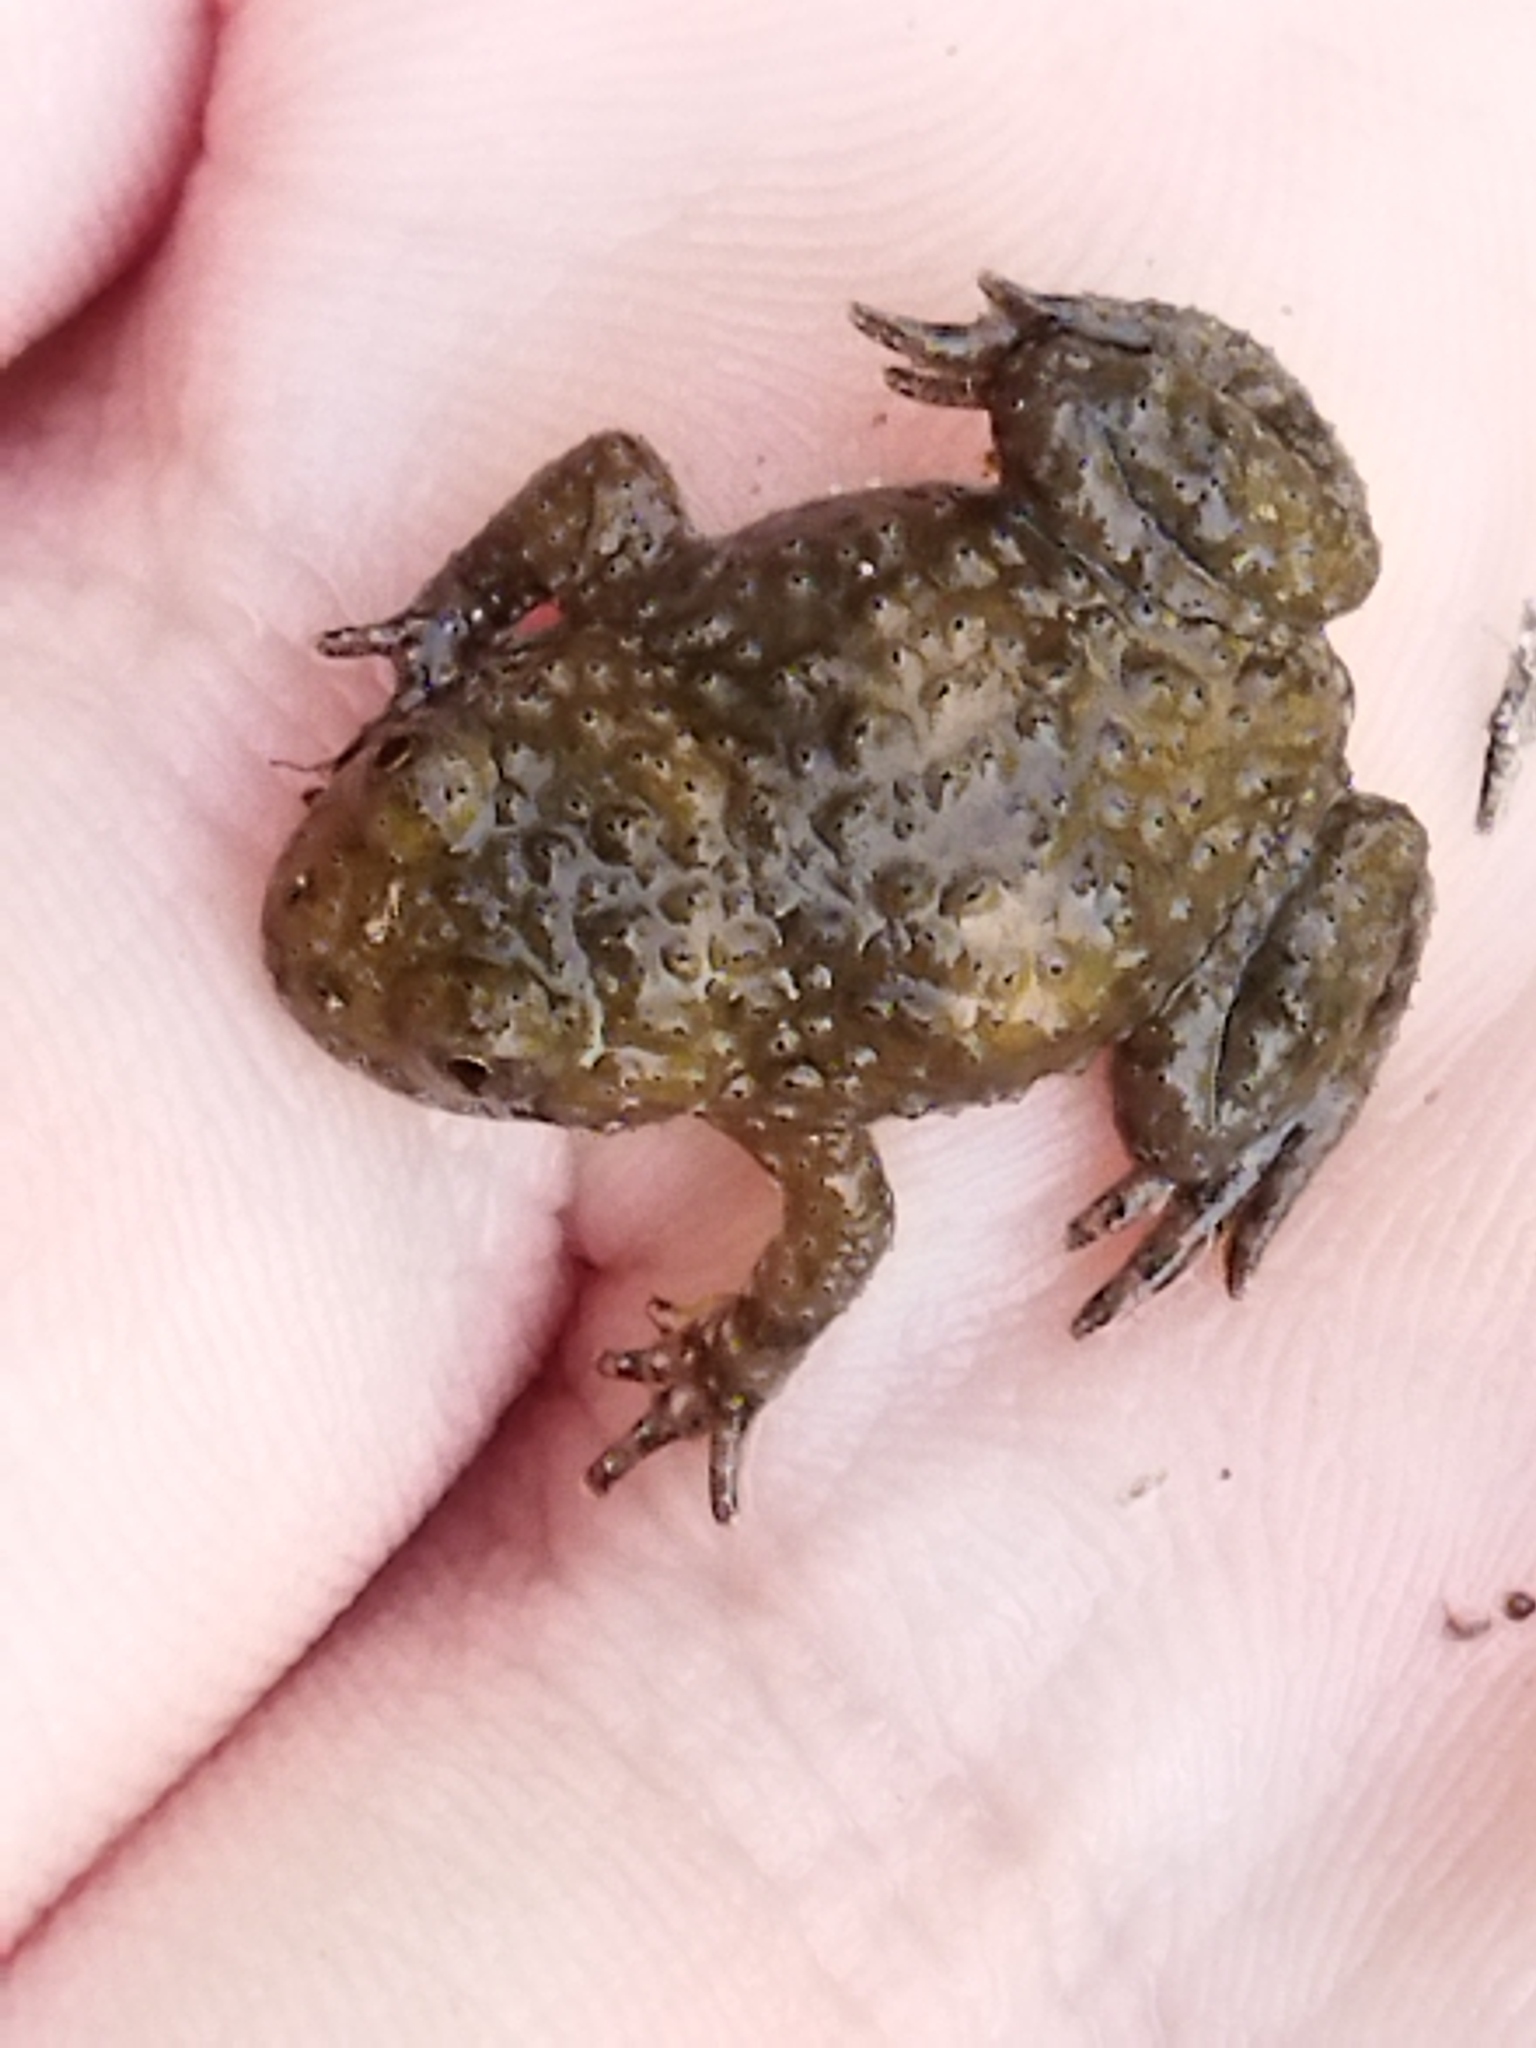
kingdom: Animalia
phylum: Chordata
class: Amphibia
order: Anura
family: Bombinatoridae
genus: Bombina
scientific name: Bombina variegata
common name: Yellow-bellied toad
